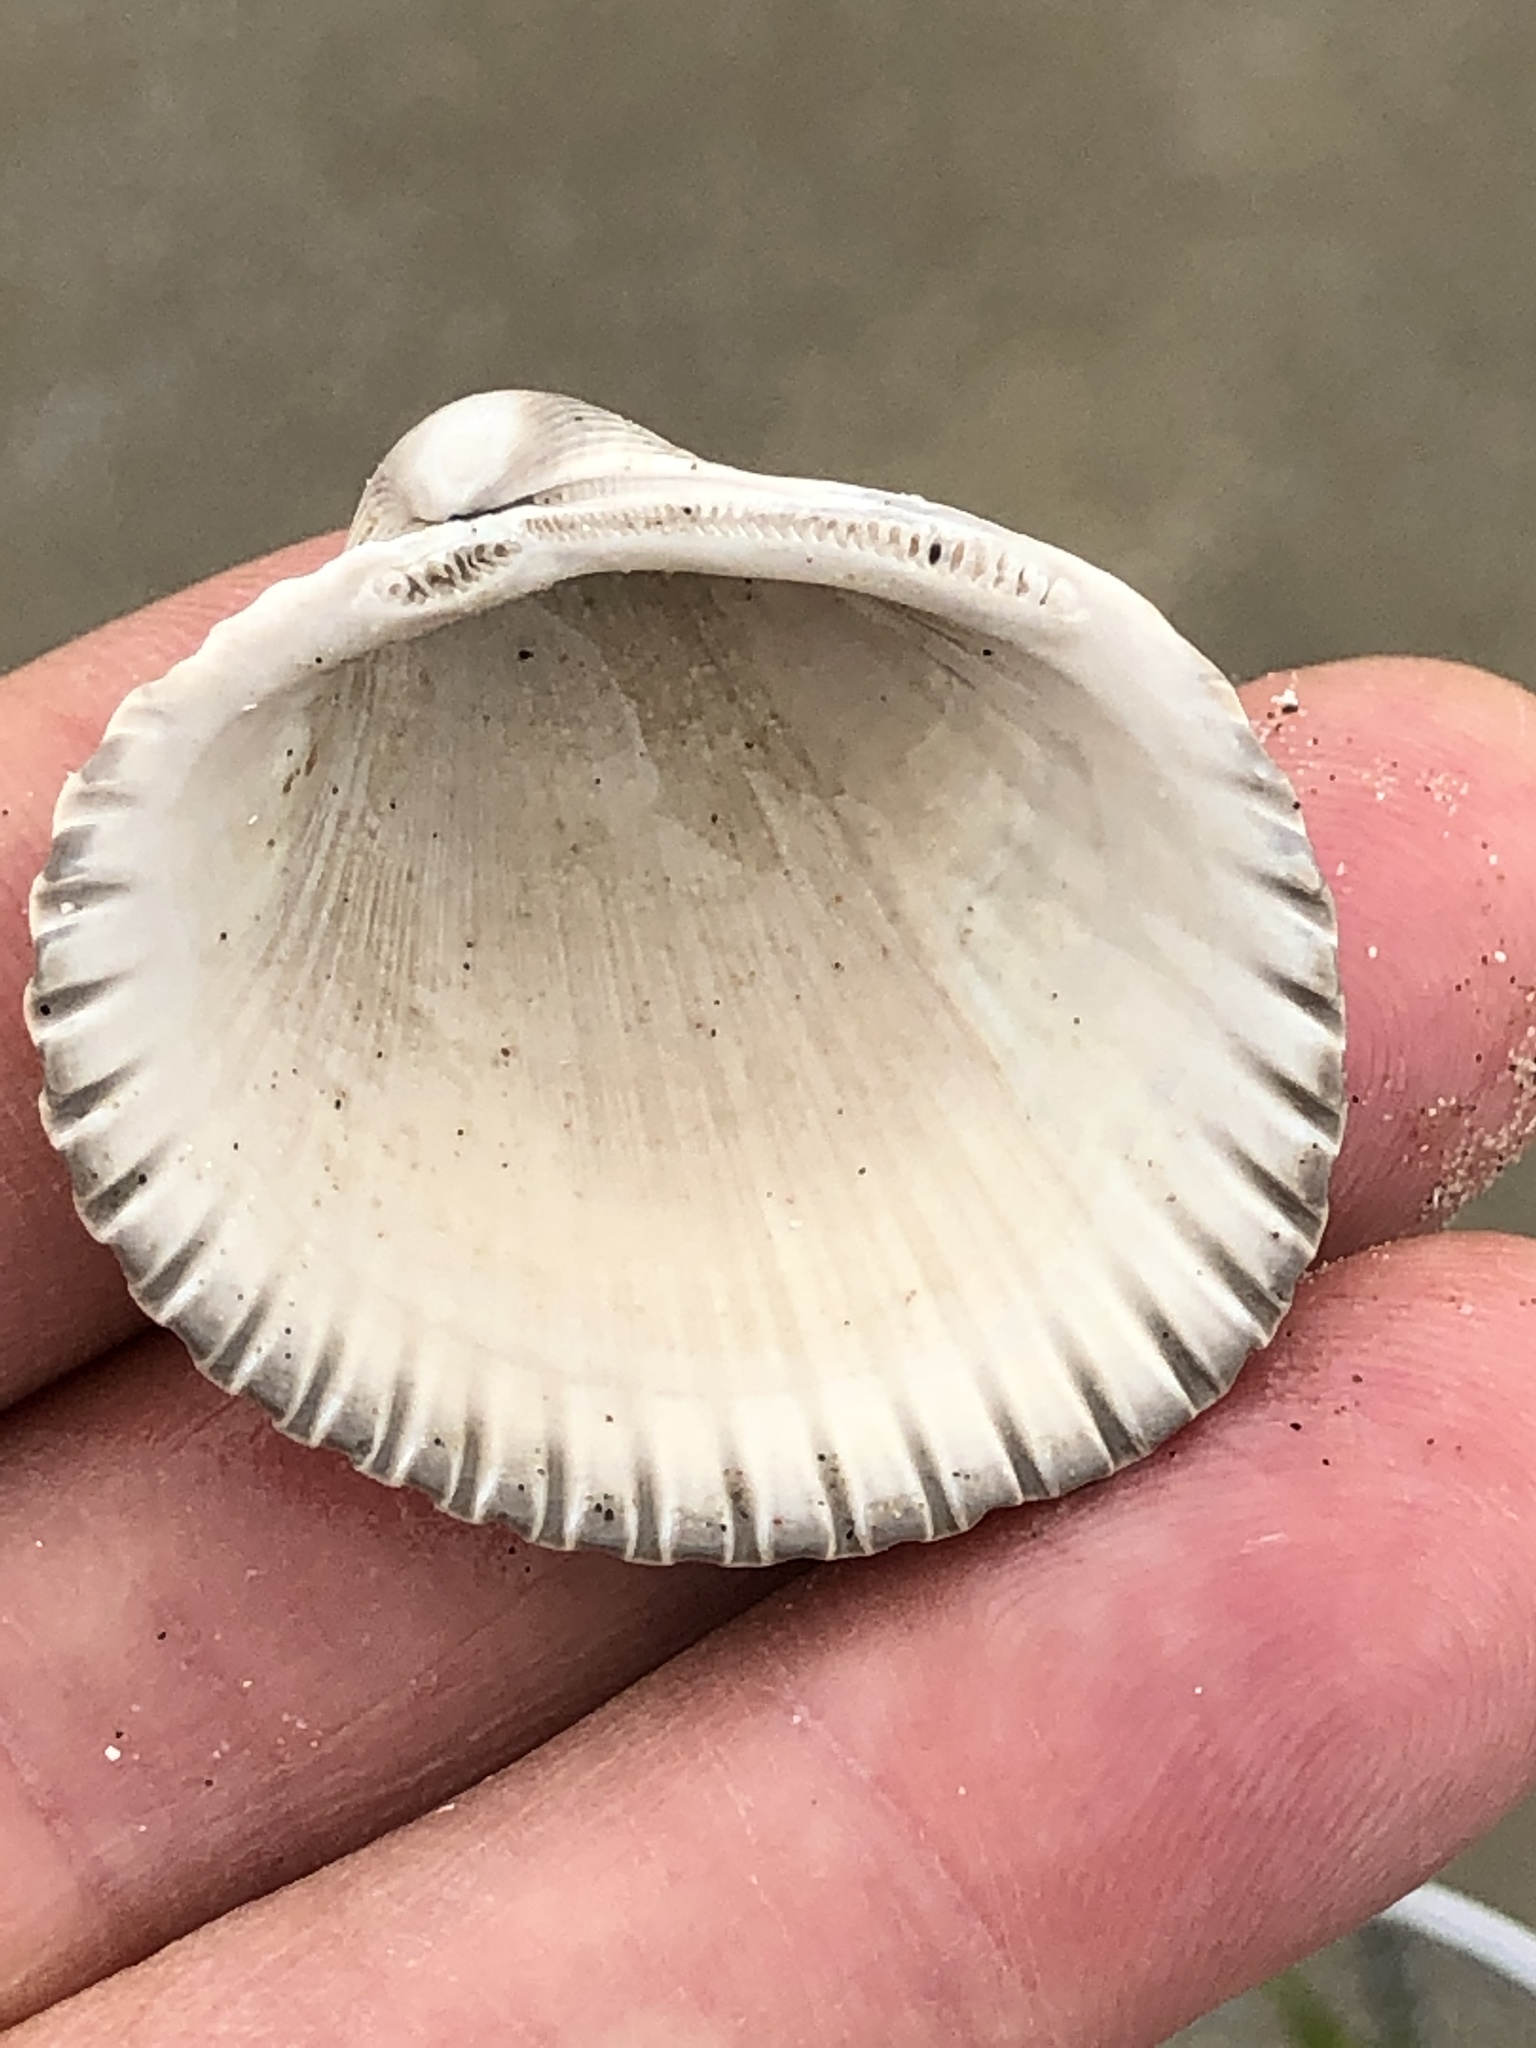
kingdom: Animalia
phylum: Mollusca
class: Bivalvia
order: Arcida
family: Arcidae
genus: Lunarca
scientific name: Lunarca ovalis
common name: Blood ark
